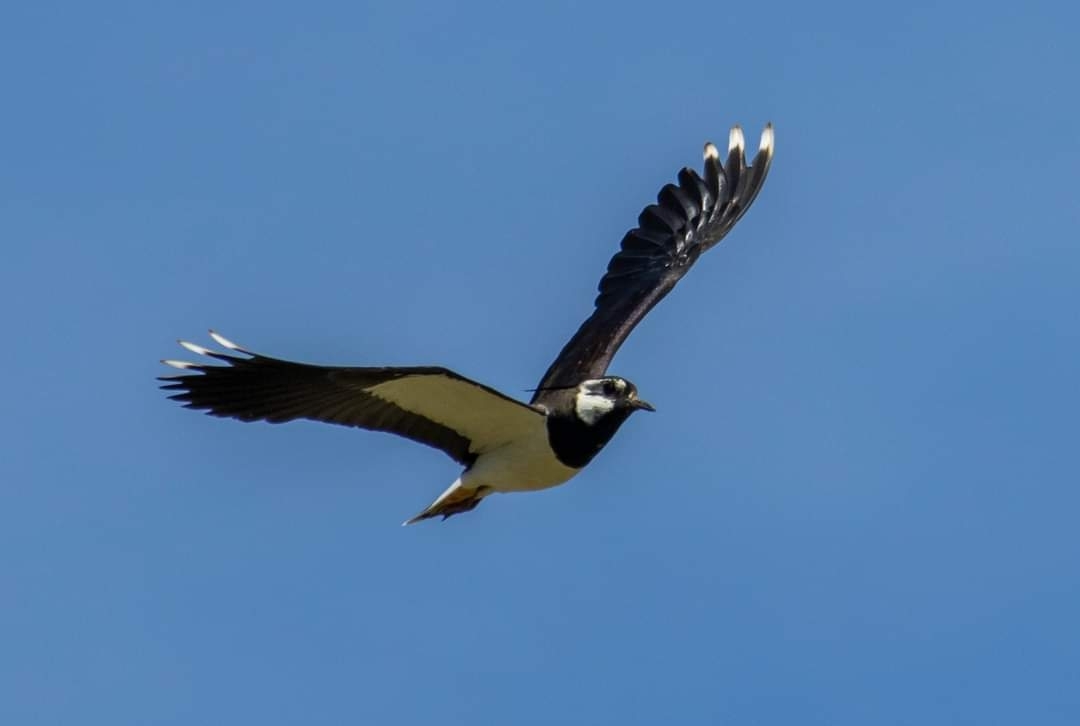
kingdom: Animalia
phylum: Chordata
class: Aves
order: Charadriiformes
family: Charadriidae
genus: Vanellus
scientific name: Vanellus vanellus
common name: Northern lapwing
